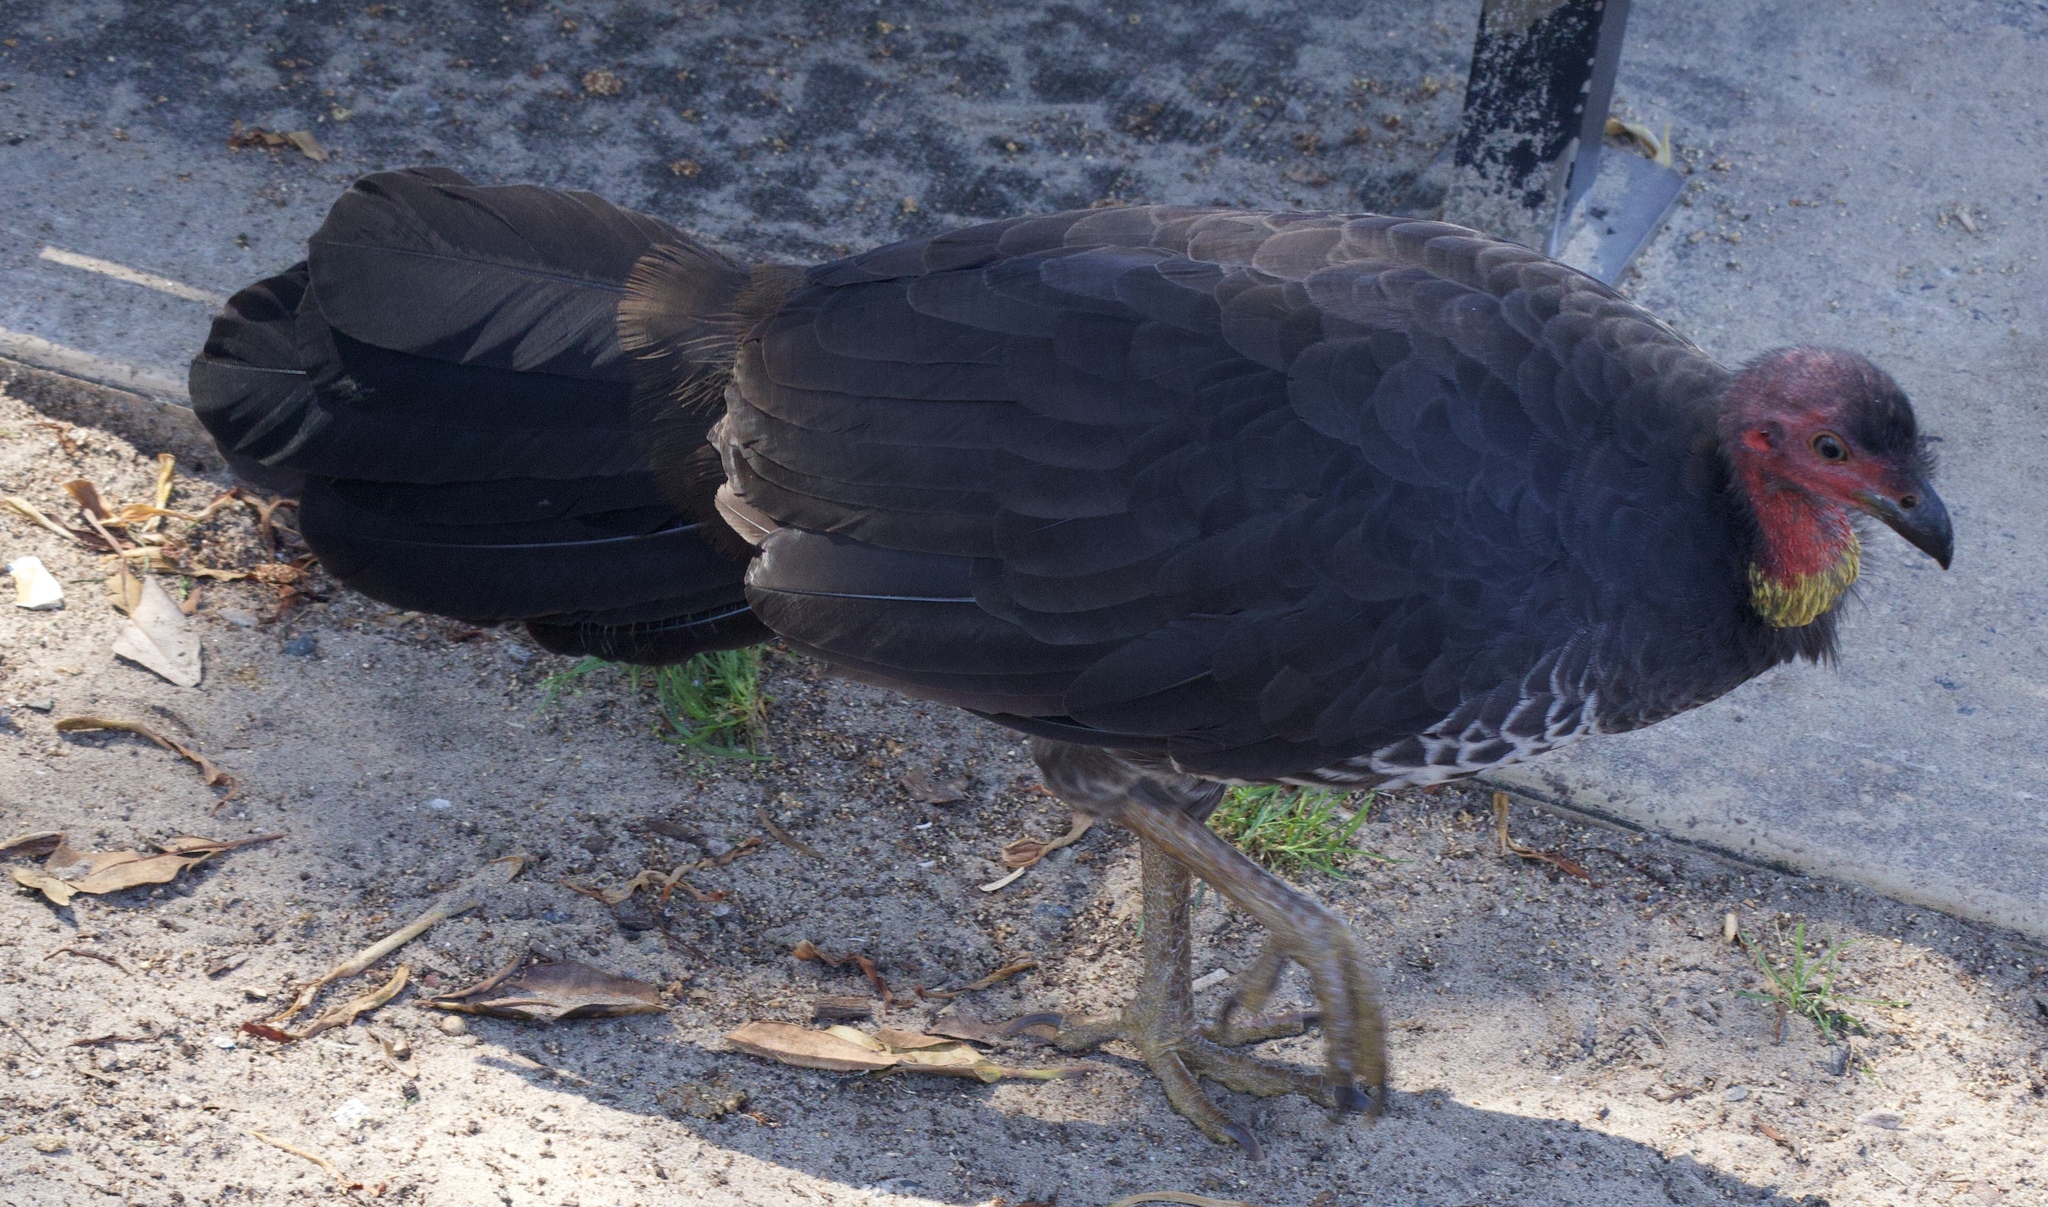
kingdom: Animalia
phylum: Chordata
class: Aves
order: Galliformes
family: Megapodiidae
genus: Alectura
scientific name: Alectura lathami
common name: Australian brushturkey
